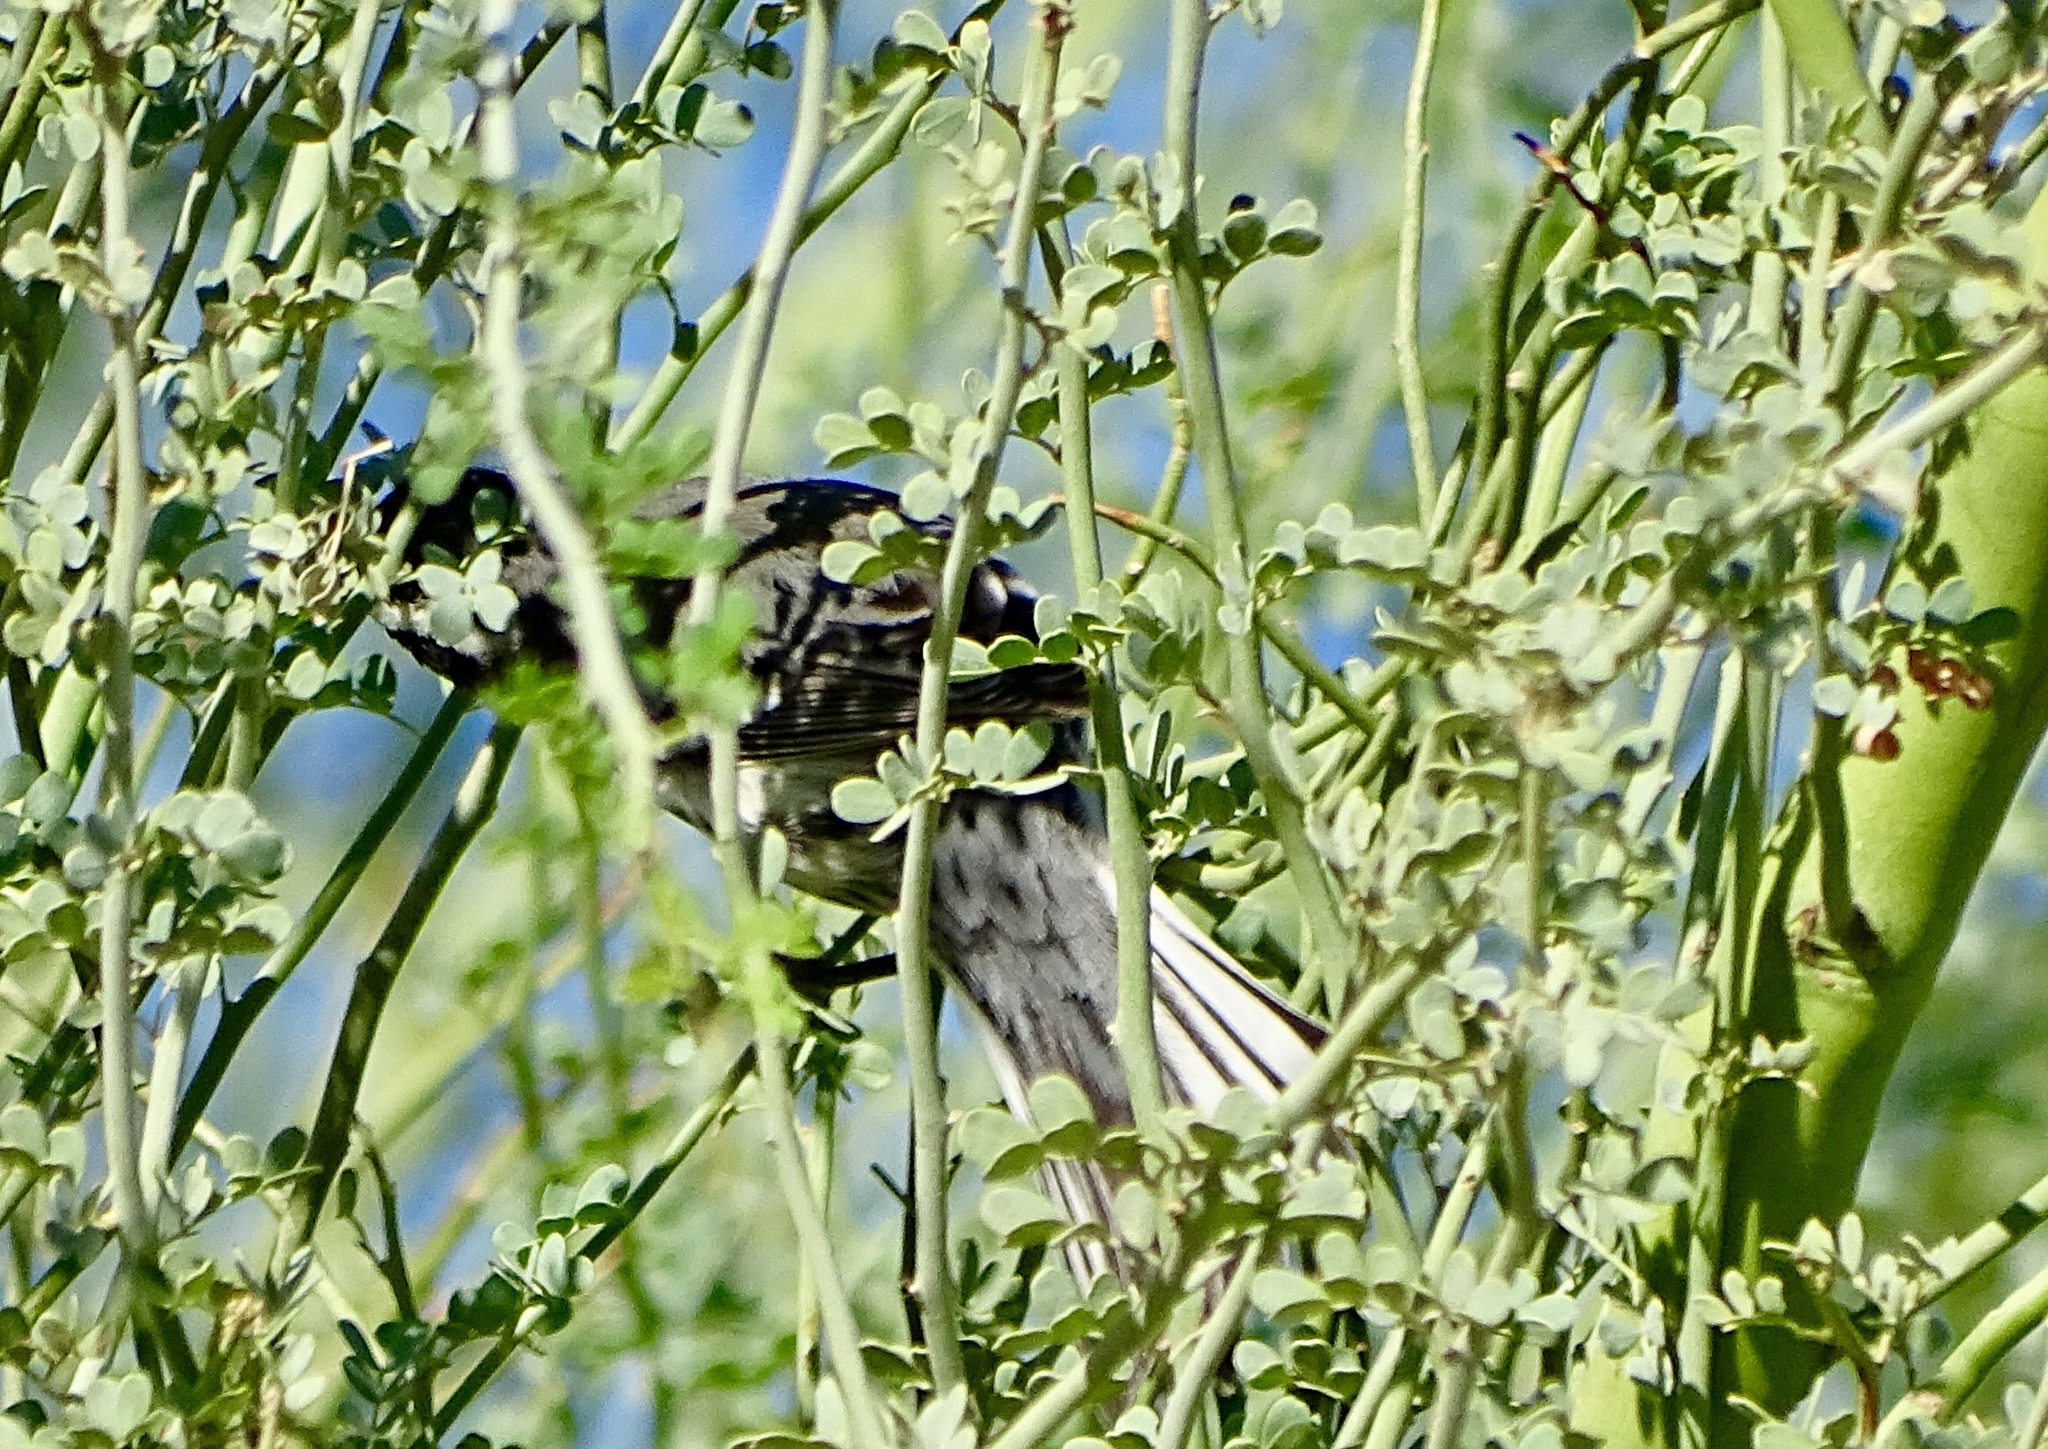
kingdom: Animalia
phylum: Chordata
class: Aves
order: Passeriformes
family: Parulidae
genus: Setophaga
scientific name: Setophaga nigrescens
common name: Black-throated gray warbler
